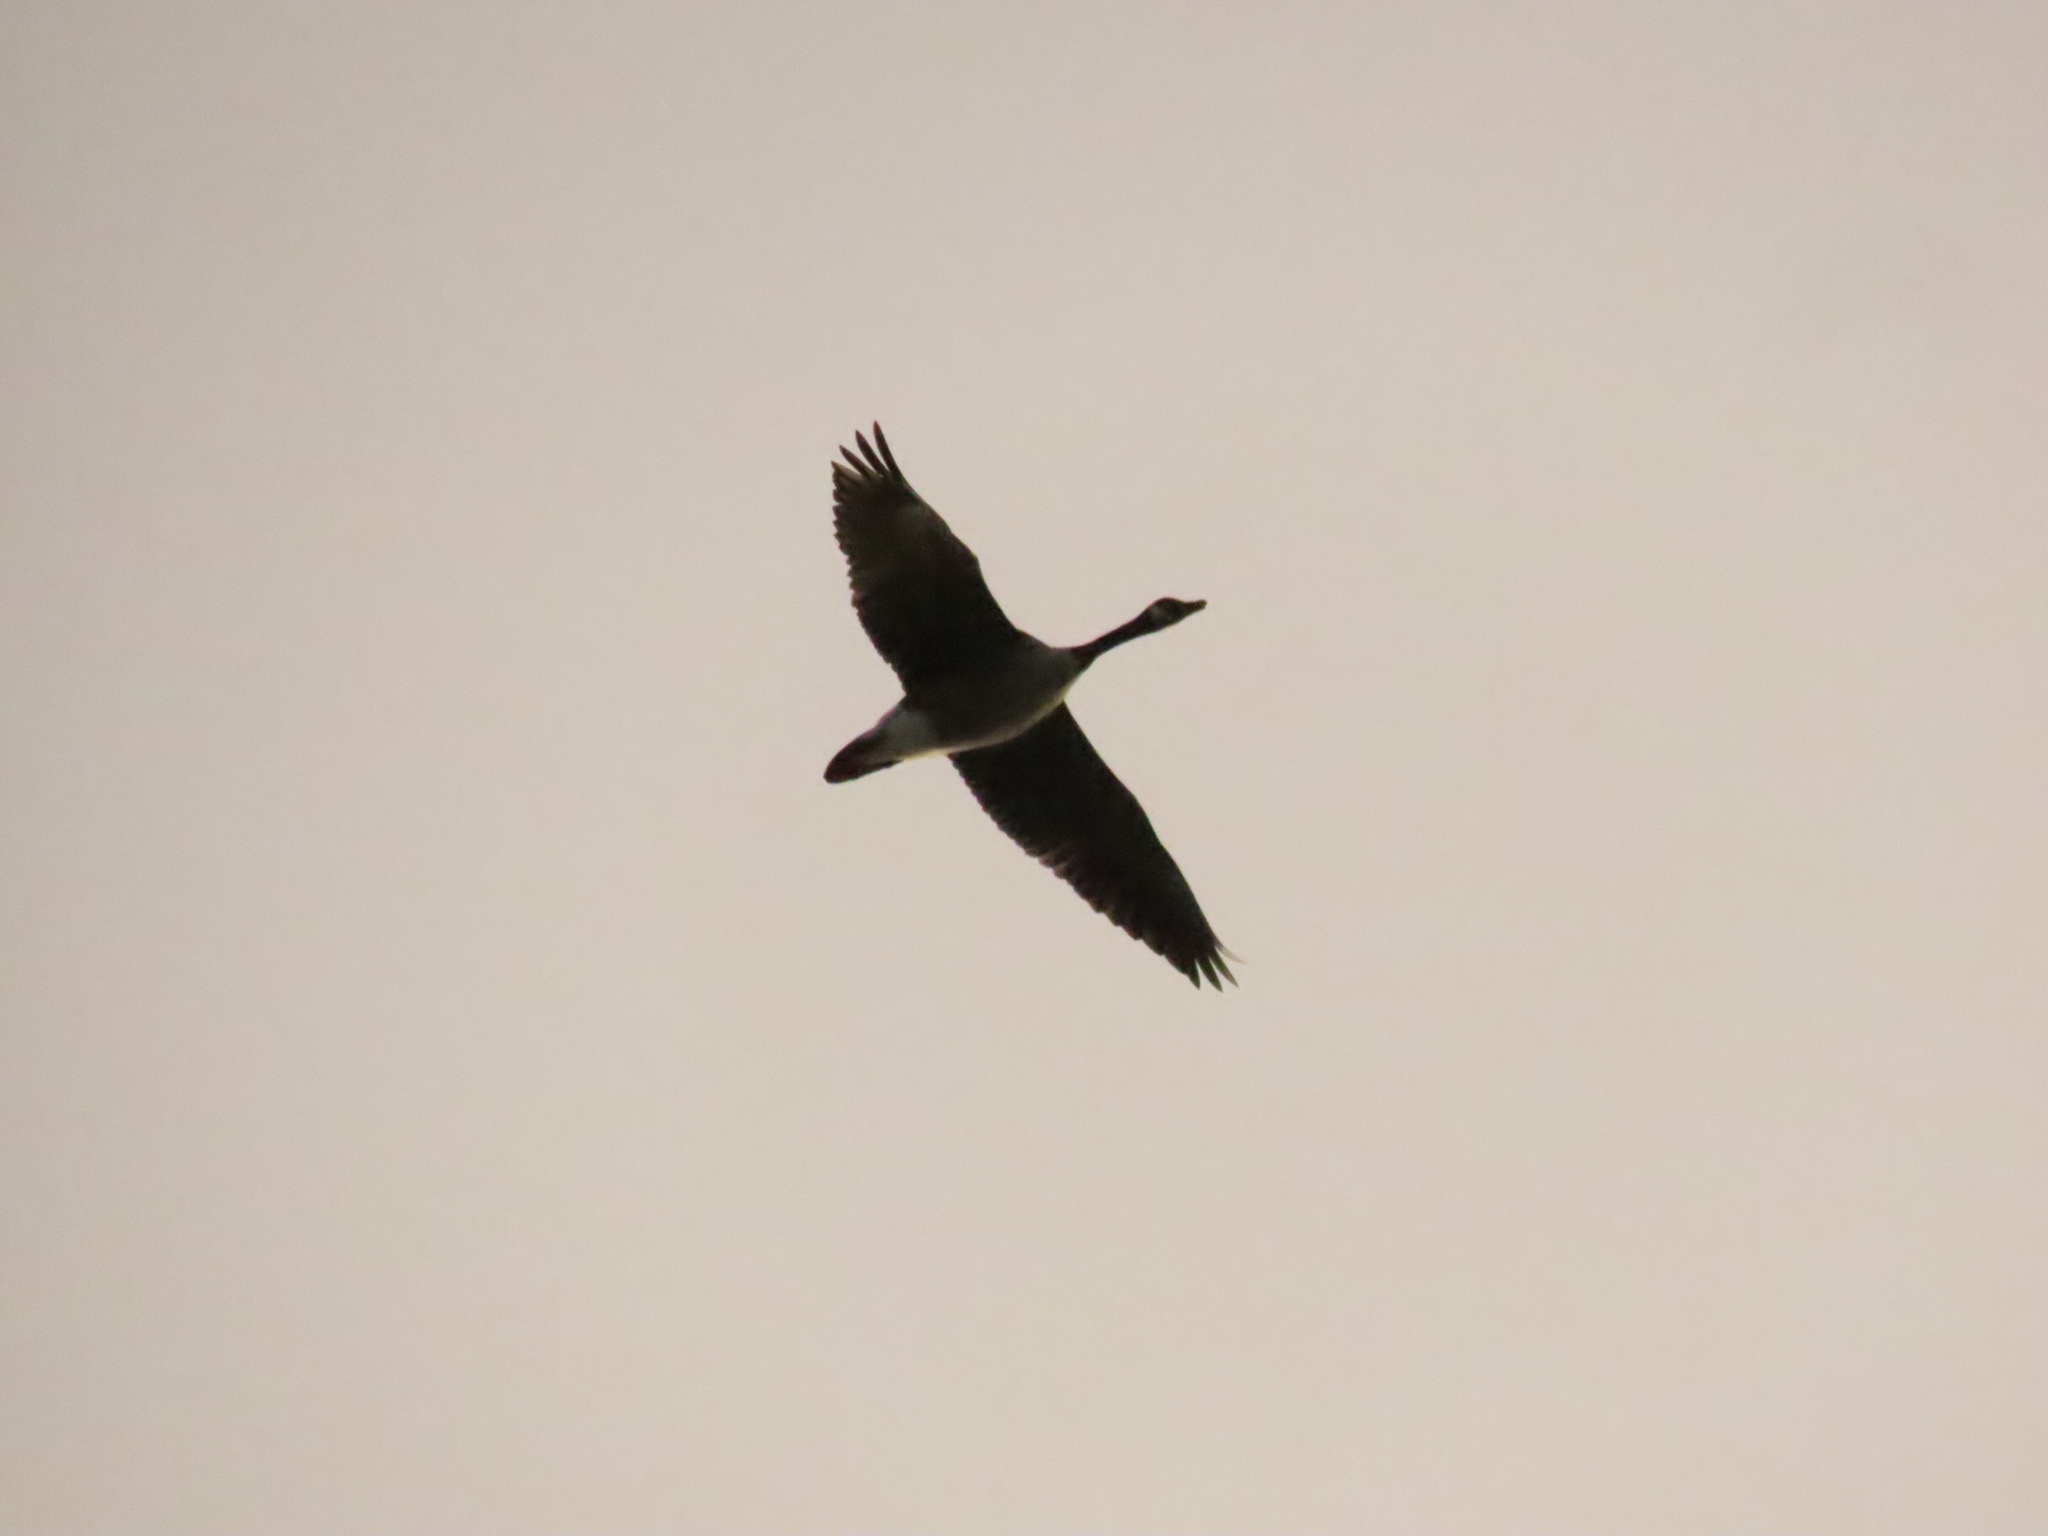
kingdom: Animalia
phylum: Chordata
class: Aves
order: Anseriformes
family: Anatidae
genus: Branta
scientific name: Branta canadensis
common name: Canada goose
